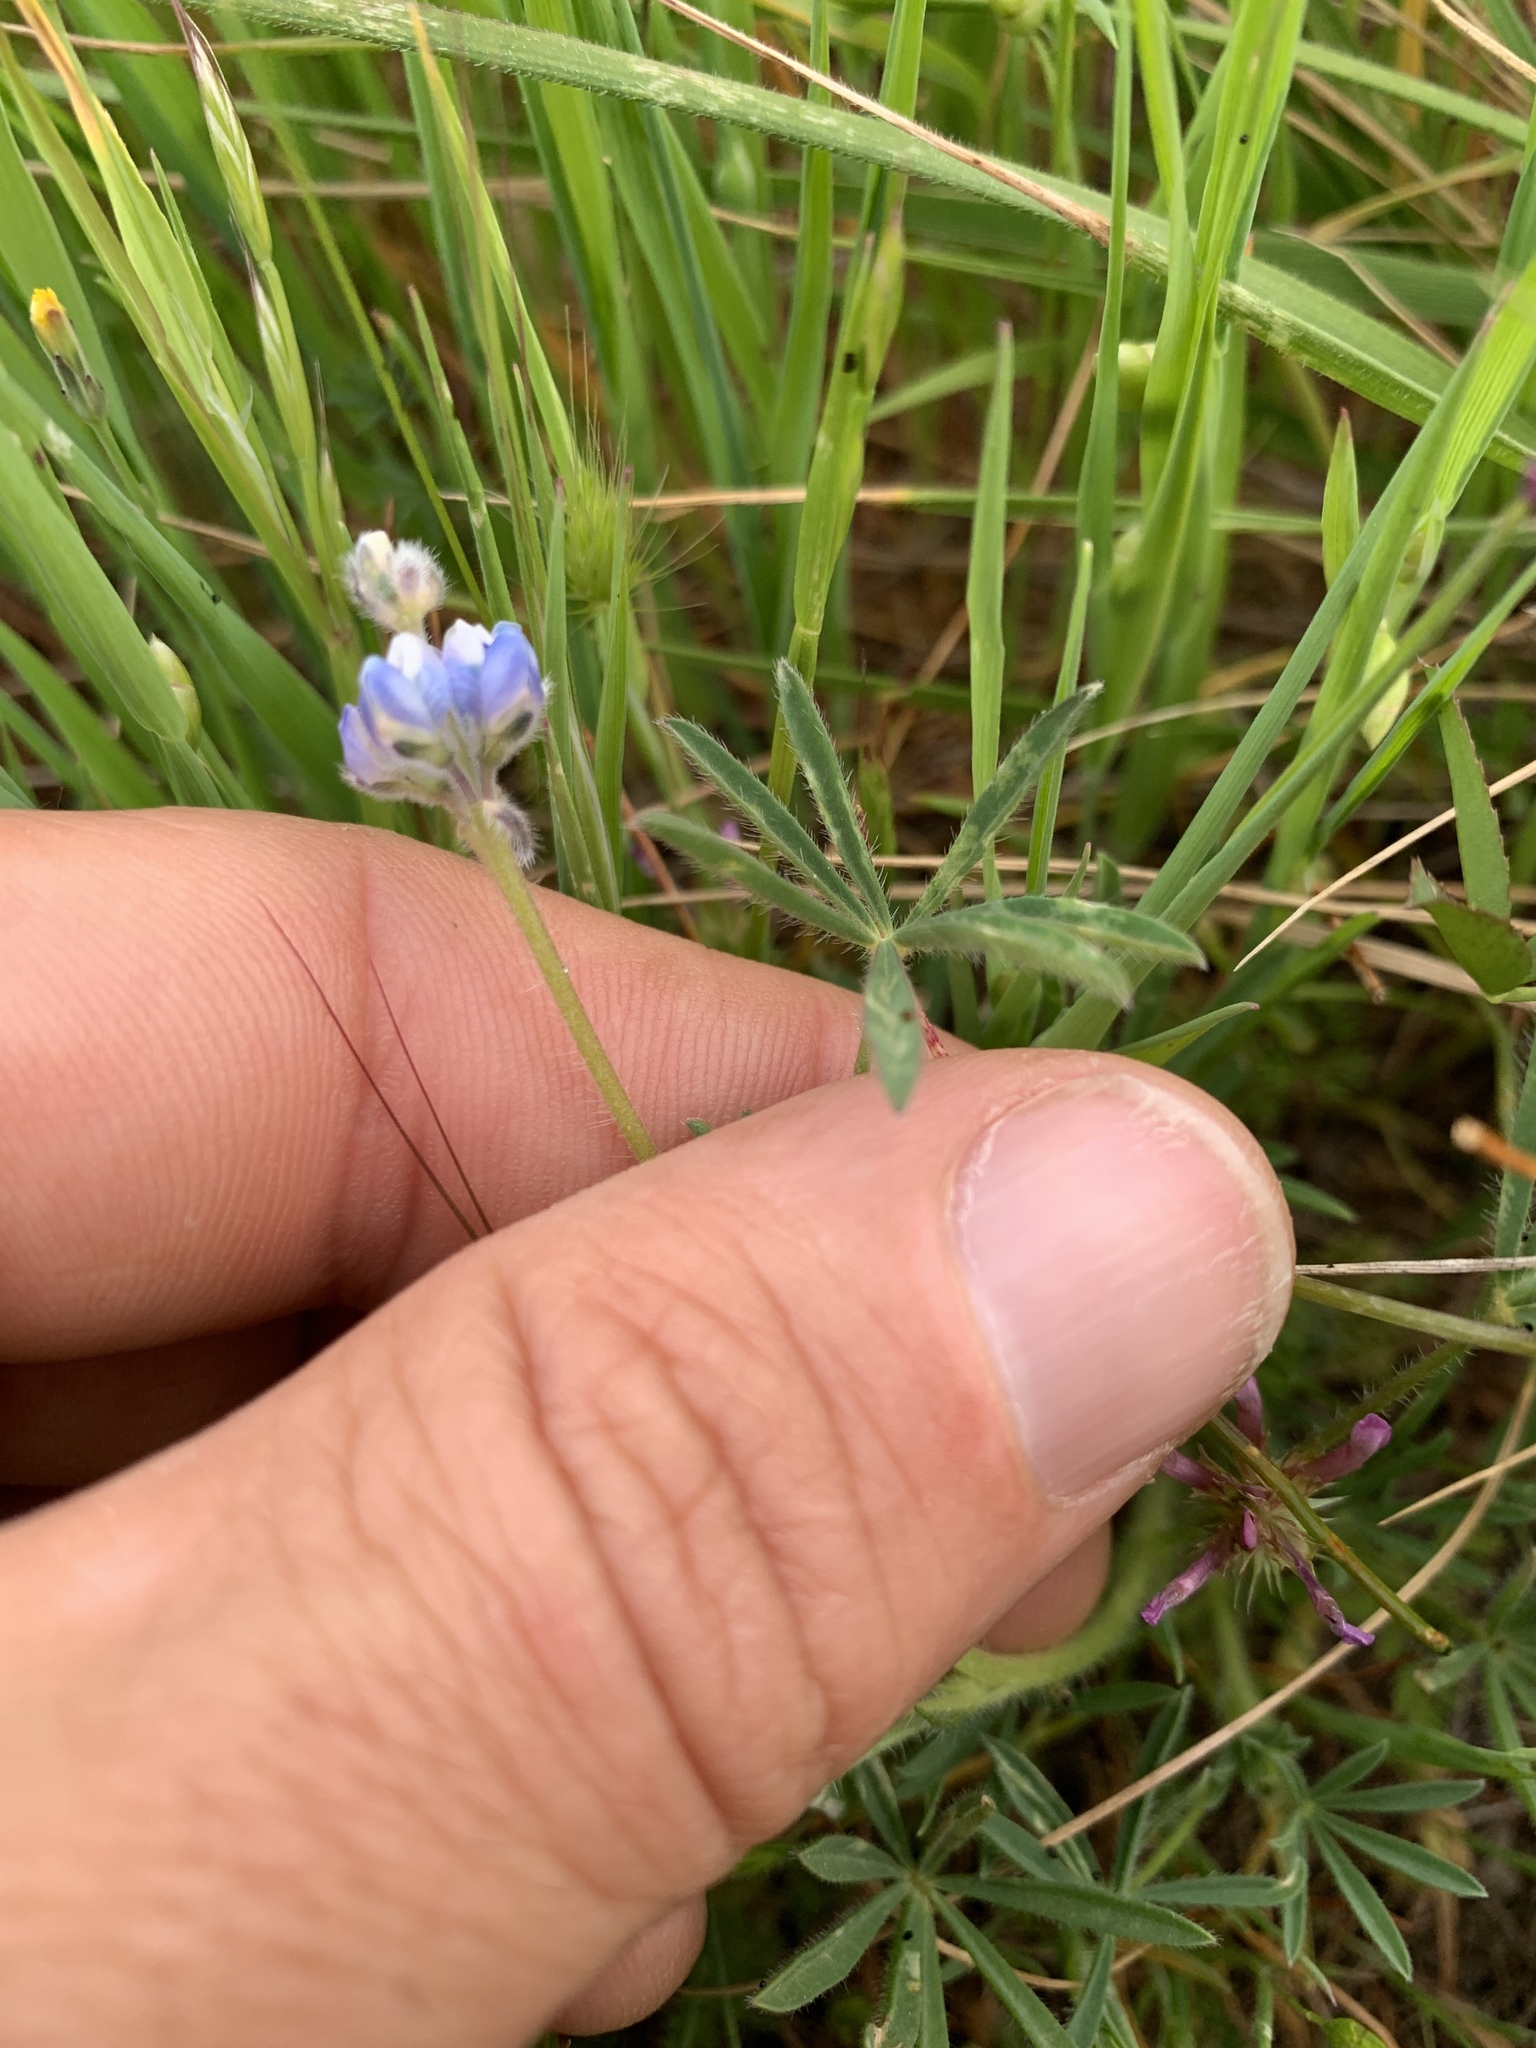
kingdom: Plantae
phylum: Tracheophyta
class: Magnoliopsida
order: Fabales
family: Fabaceae
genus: Lupinus
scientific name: Lupinus bicolor
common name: Miniature lupine
